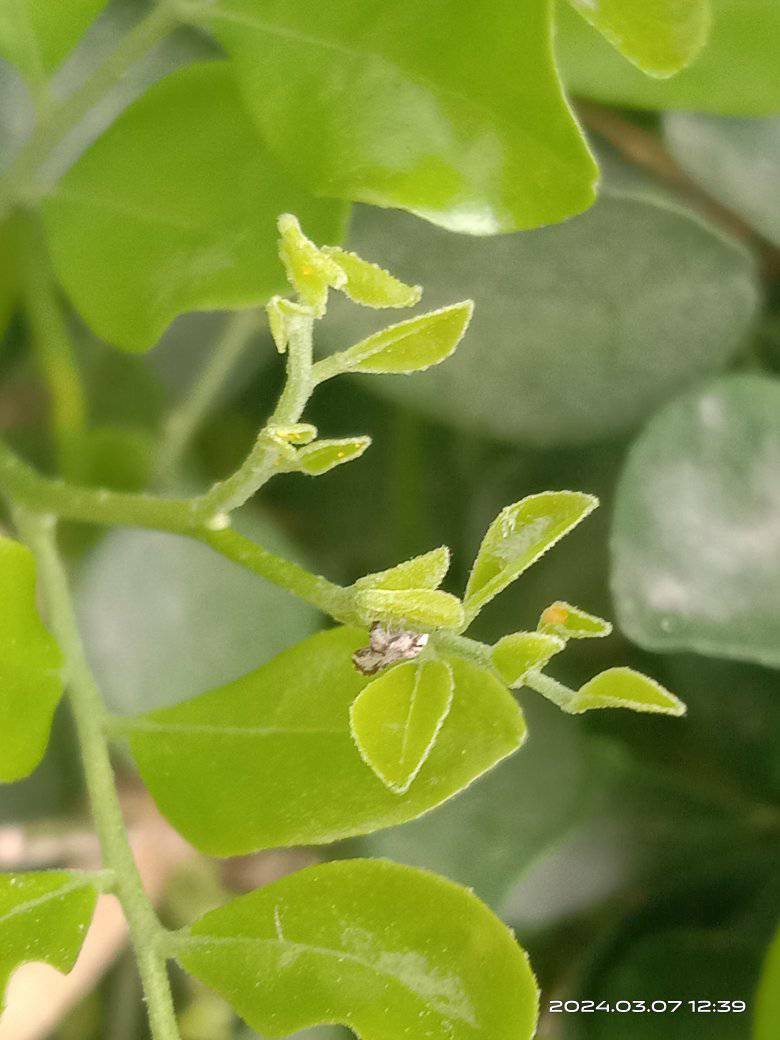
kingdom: Animalia
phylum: Arthropoda
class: Insecta
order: Hemiptera
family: Liviidae
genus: Diaphorina
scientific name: Diaphorina citri
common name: Asian citrus psyllid
